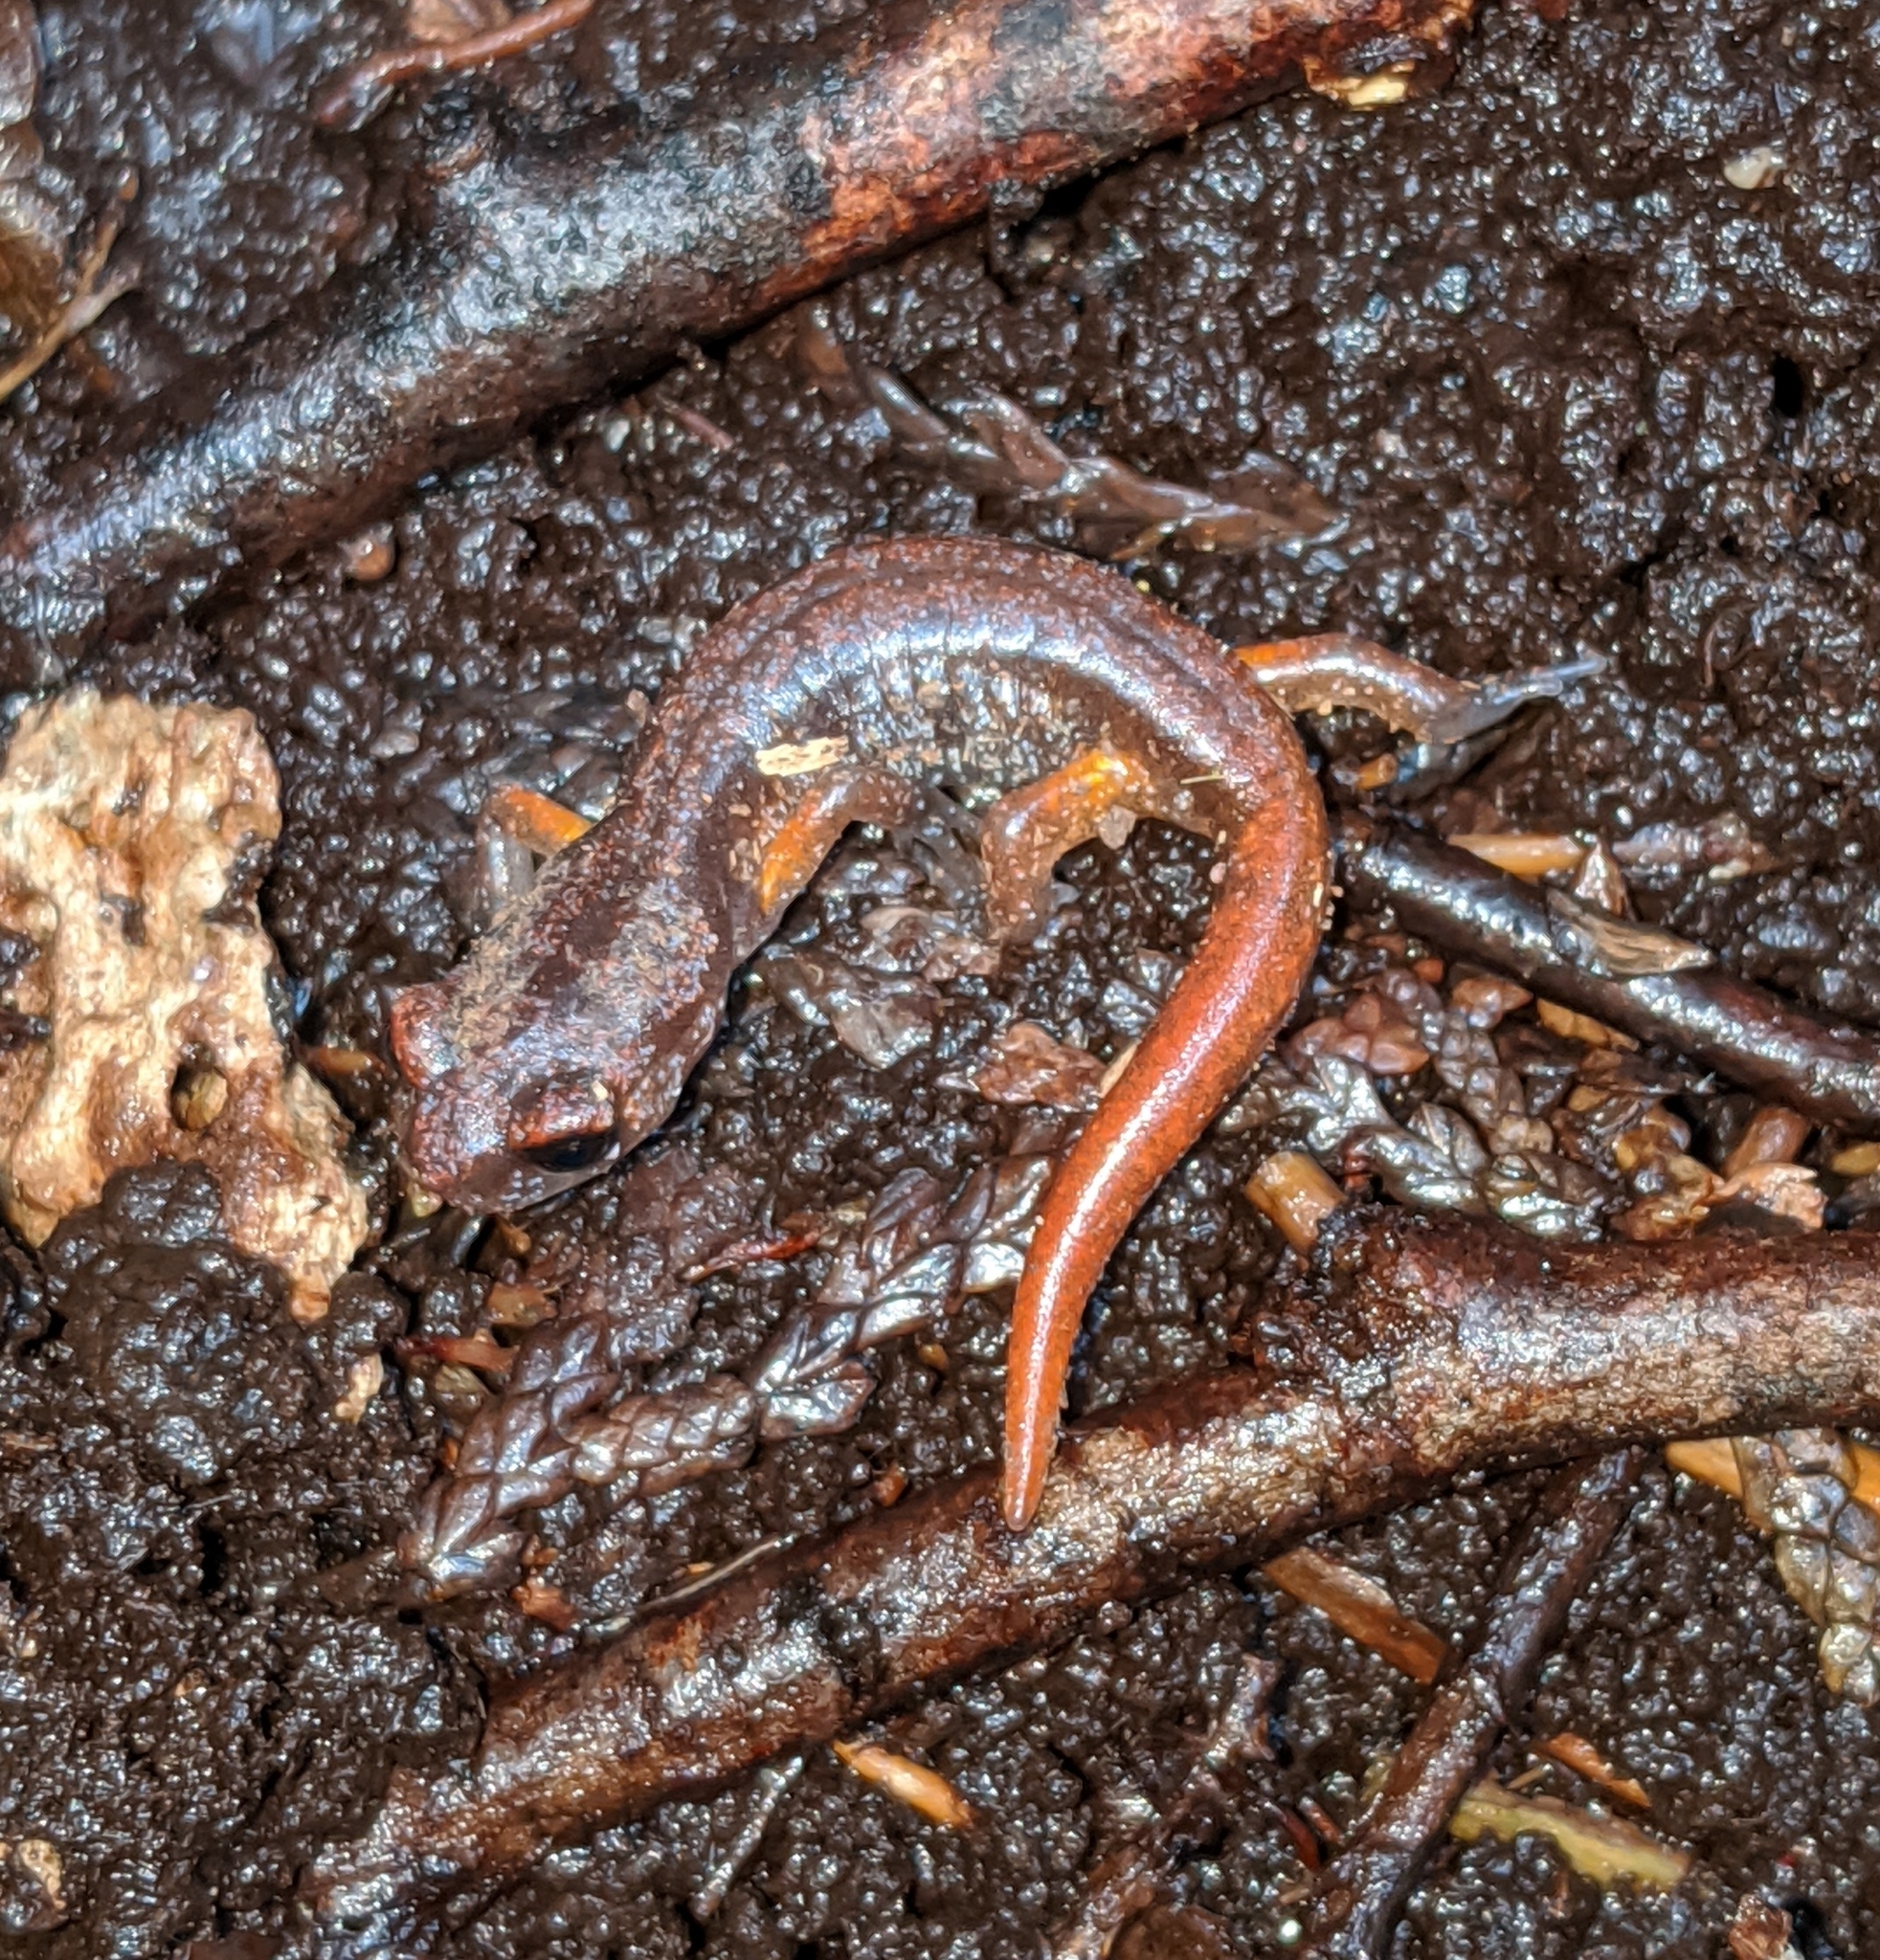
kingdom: Animalia
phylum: Chordata
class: Amphibia
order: Caudata
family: Plethodontidae
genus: Ensatina
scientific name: Ensatina eschscholtzii
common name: Ensatina
